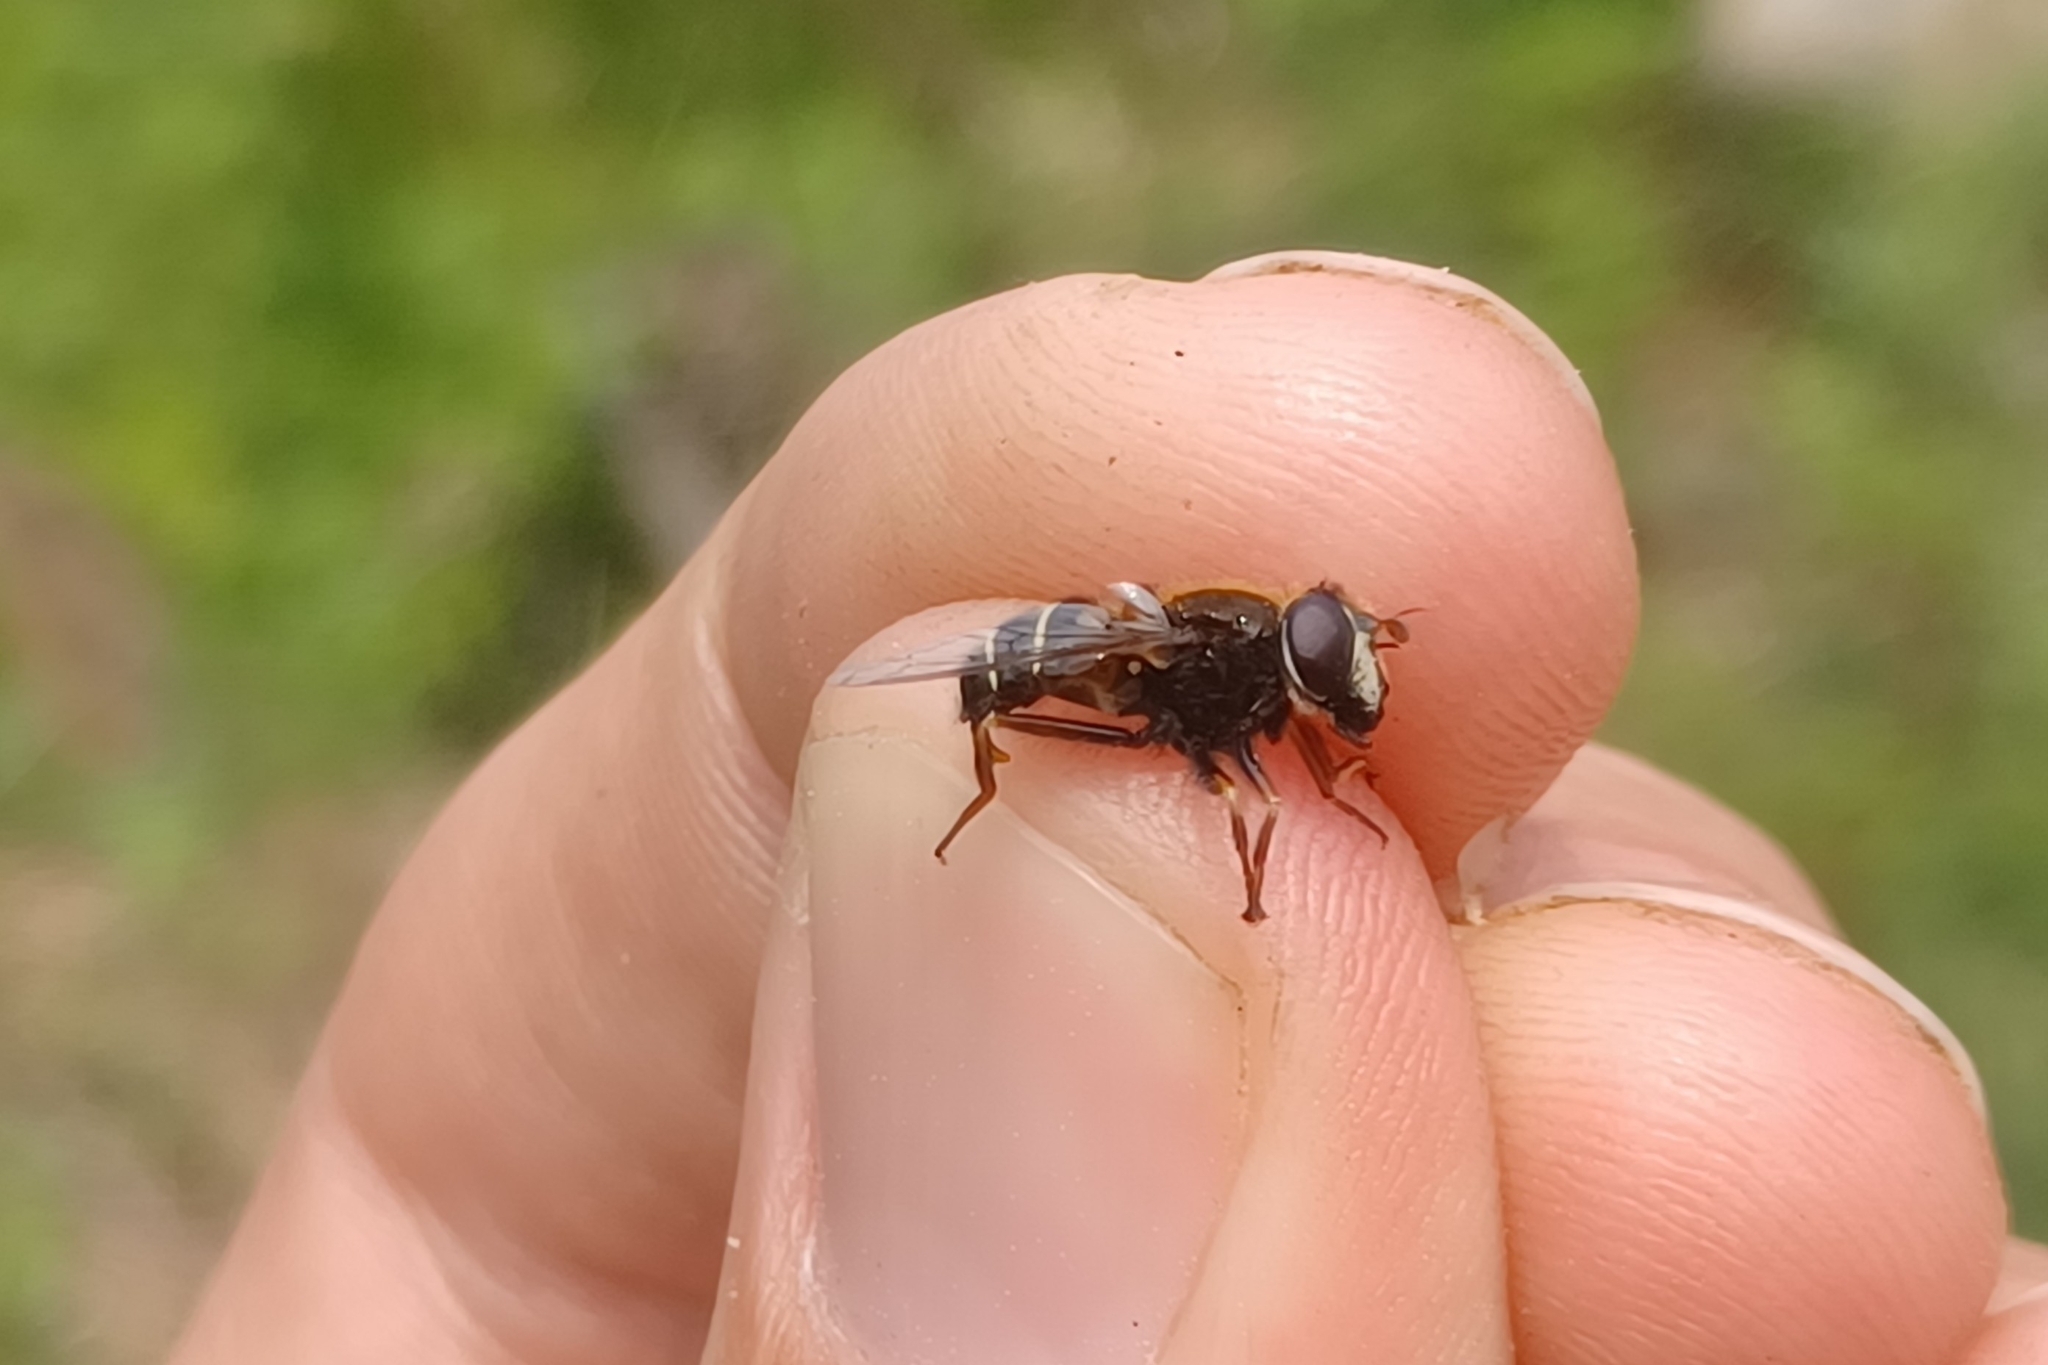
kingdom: Animalia
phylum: Arthropoda
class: Insecta
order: Diptera
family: Syrphidae
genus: Eristalis
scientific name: Eristalis cryptarum
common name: Bog hoverfly
